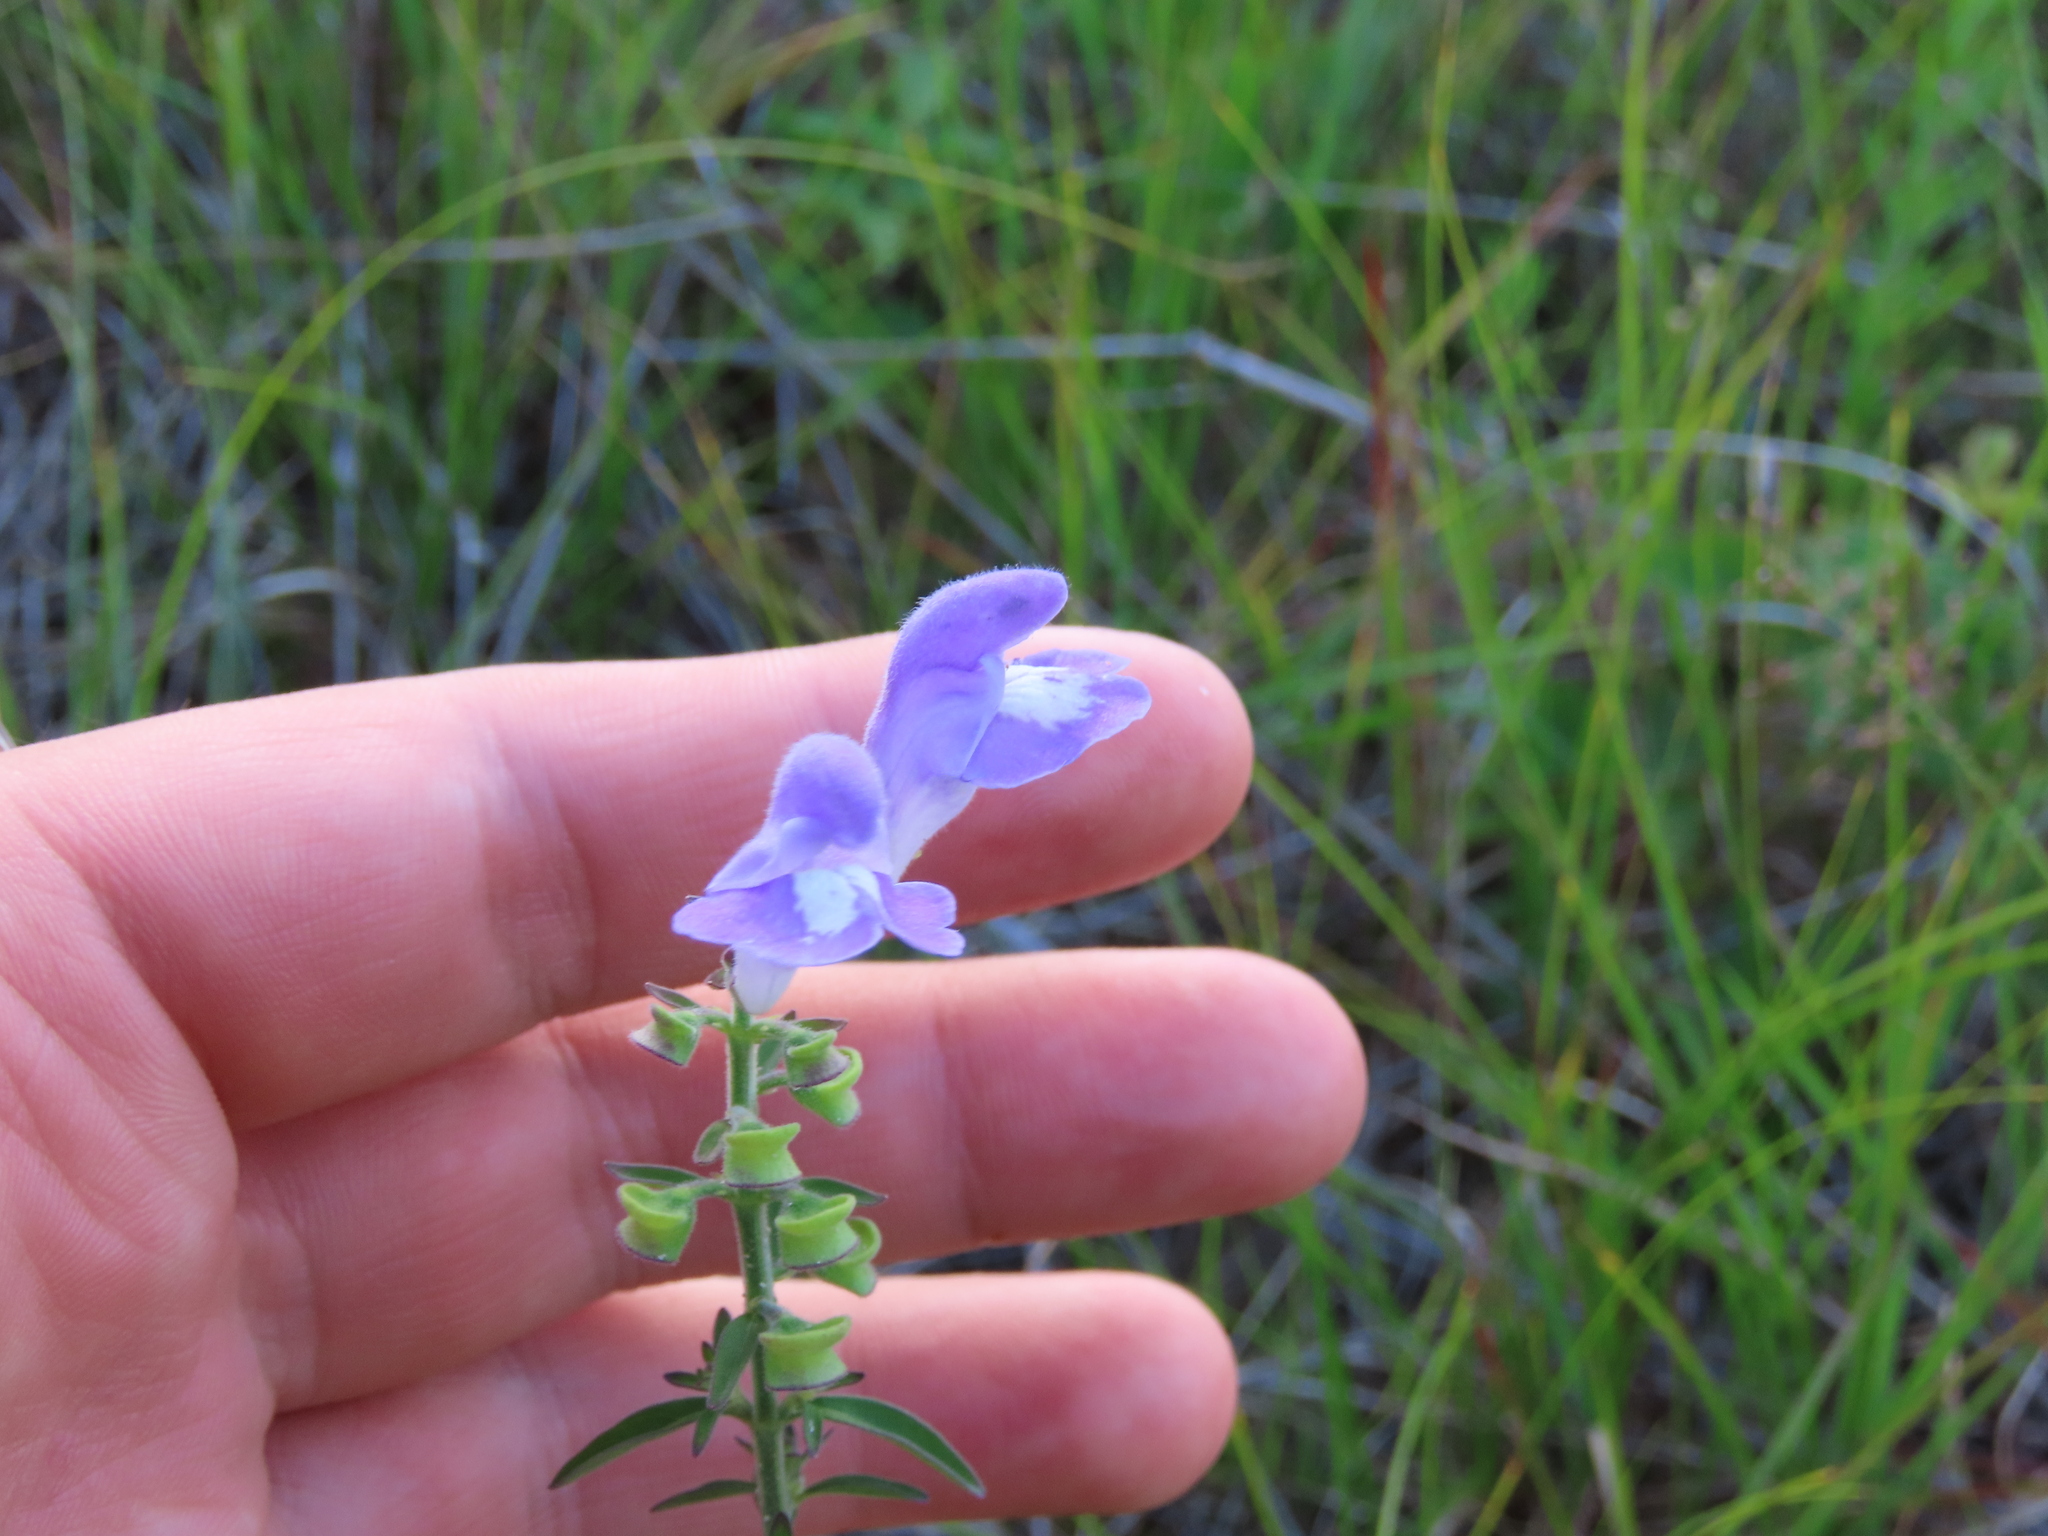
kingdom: Plantae
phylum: Tracheophyta
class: Magnoliopsida
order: Lamiales
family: Lamiaceae
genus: Scutellaria
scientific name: Scutellaria integrifolia
